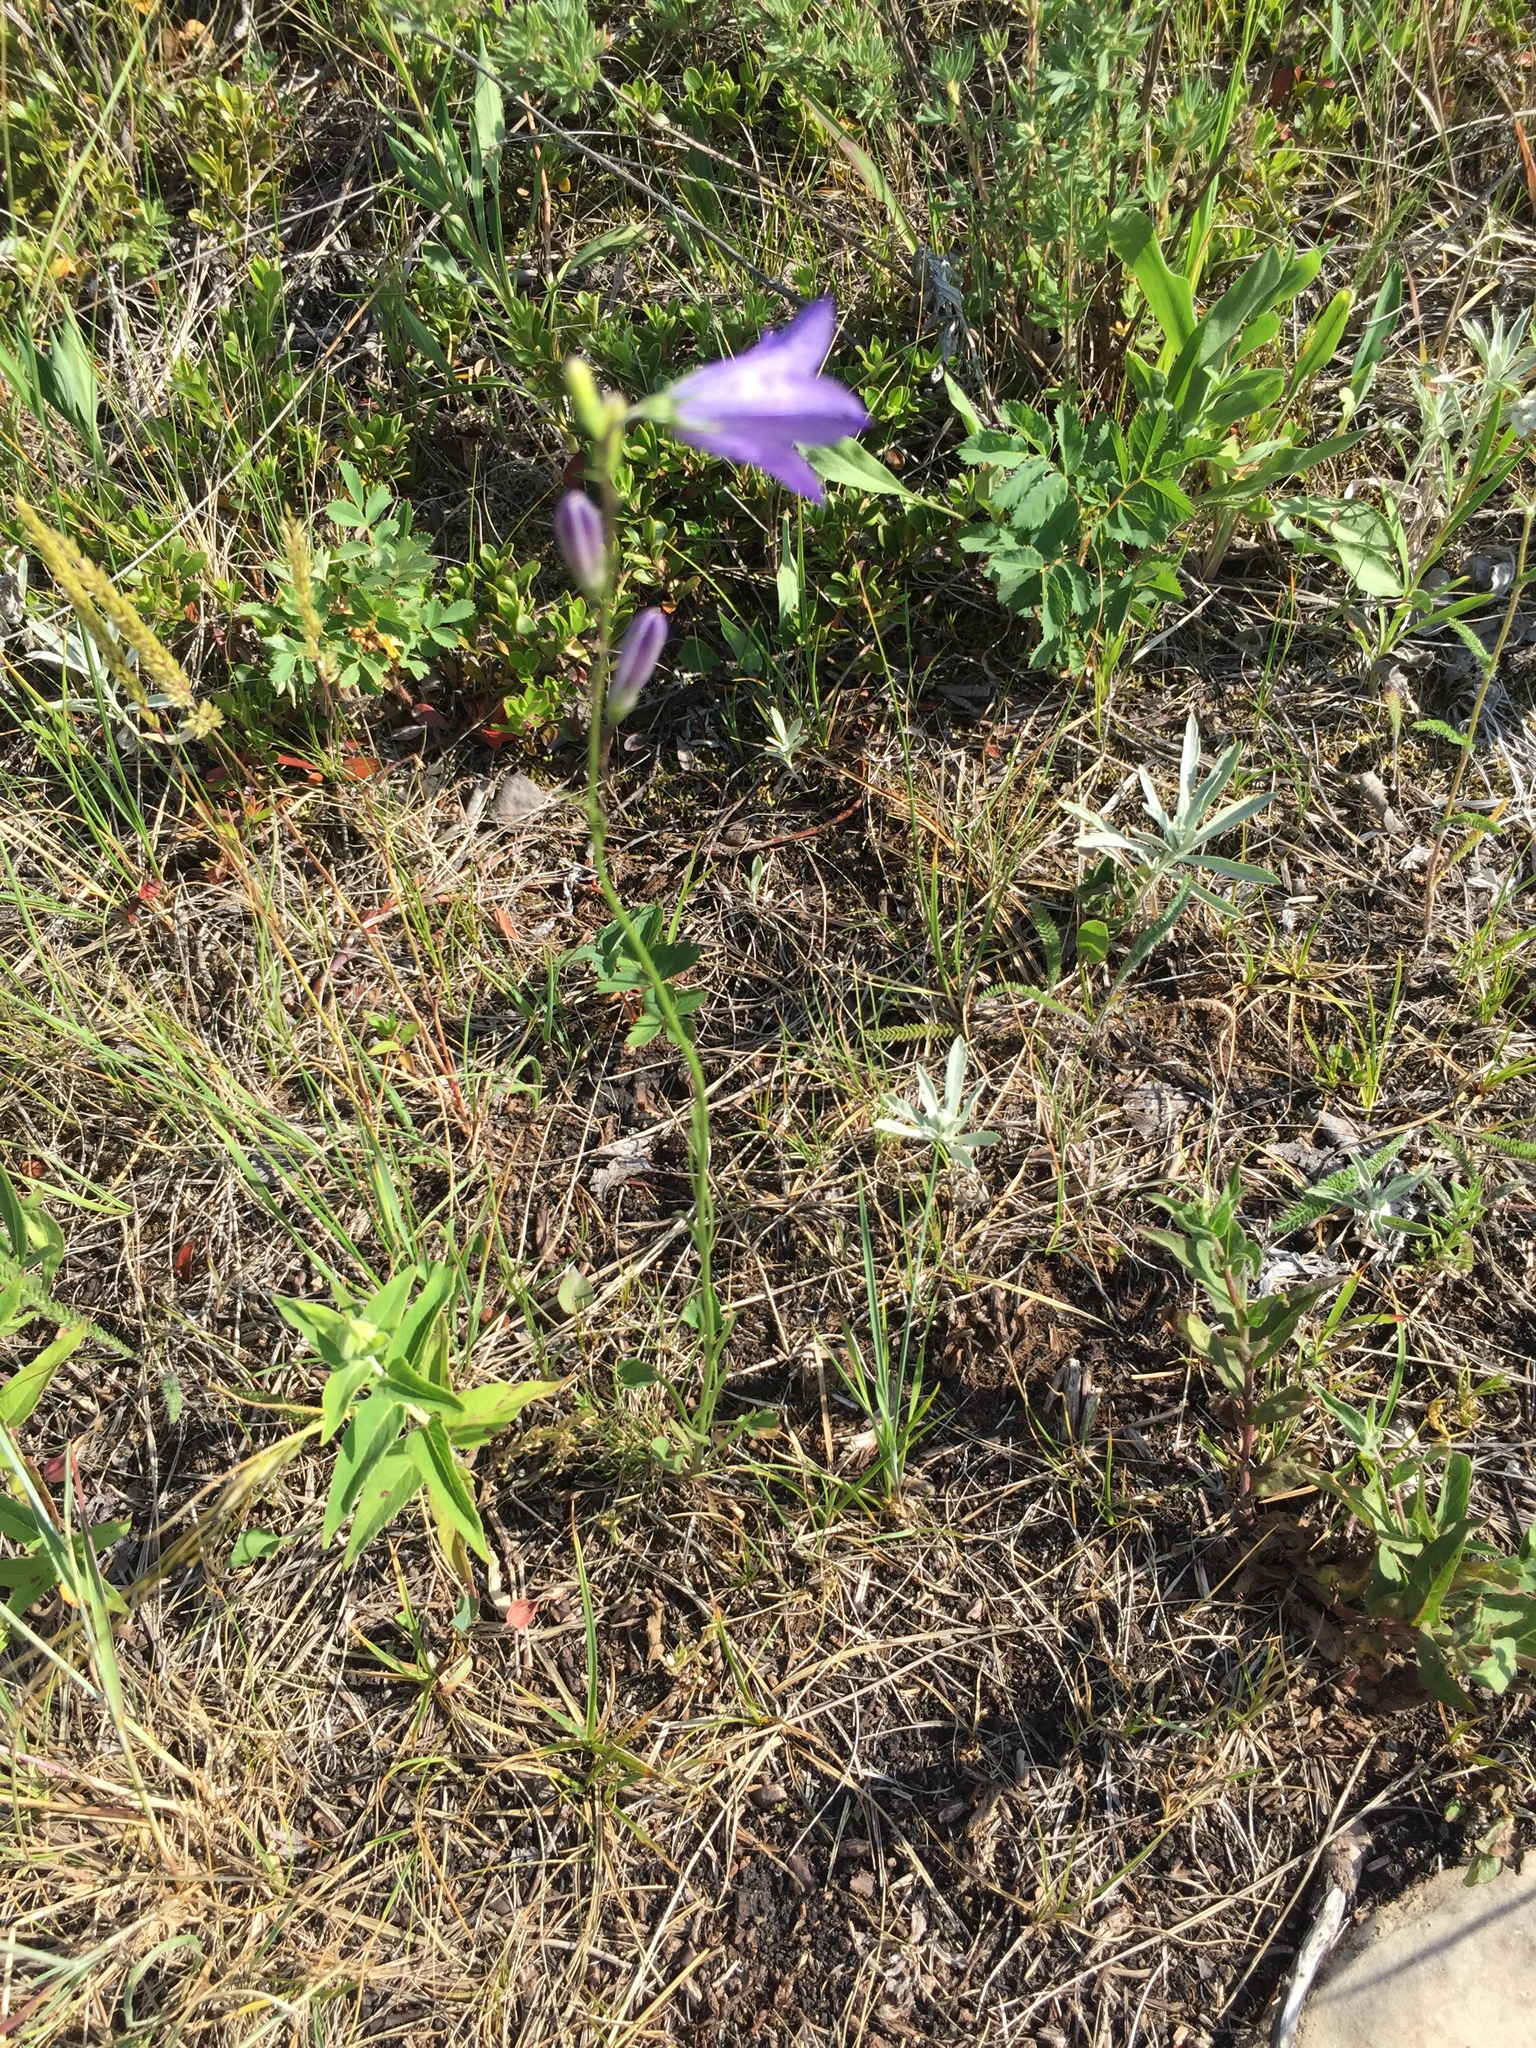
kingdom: Plantae
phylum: Tracheophyta
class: Magnoliopsida
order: Asterales
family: Campanulaceae
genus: Campanula
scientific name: Campanula petiolata
